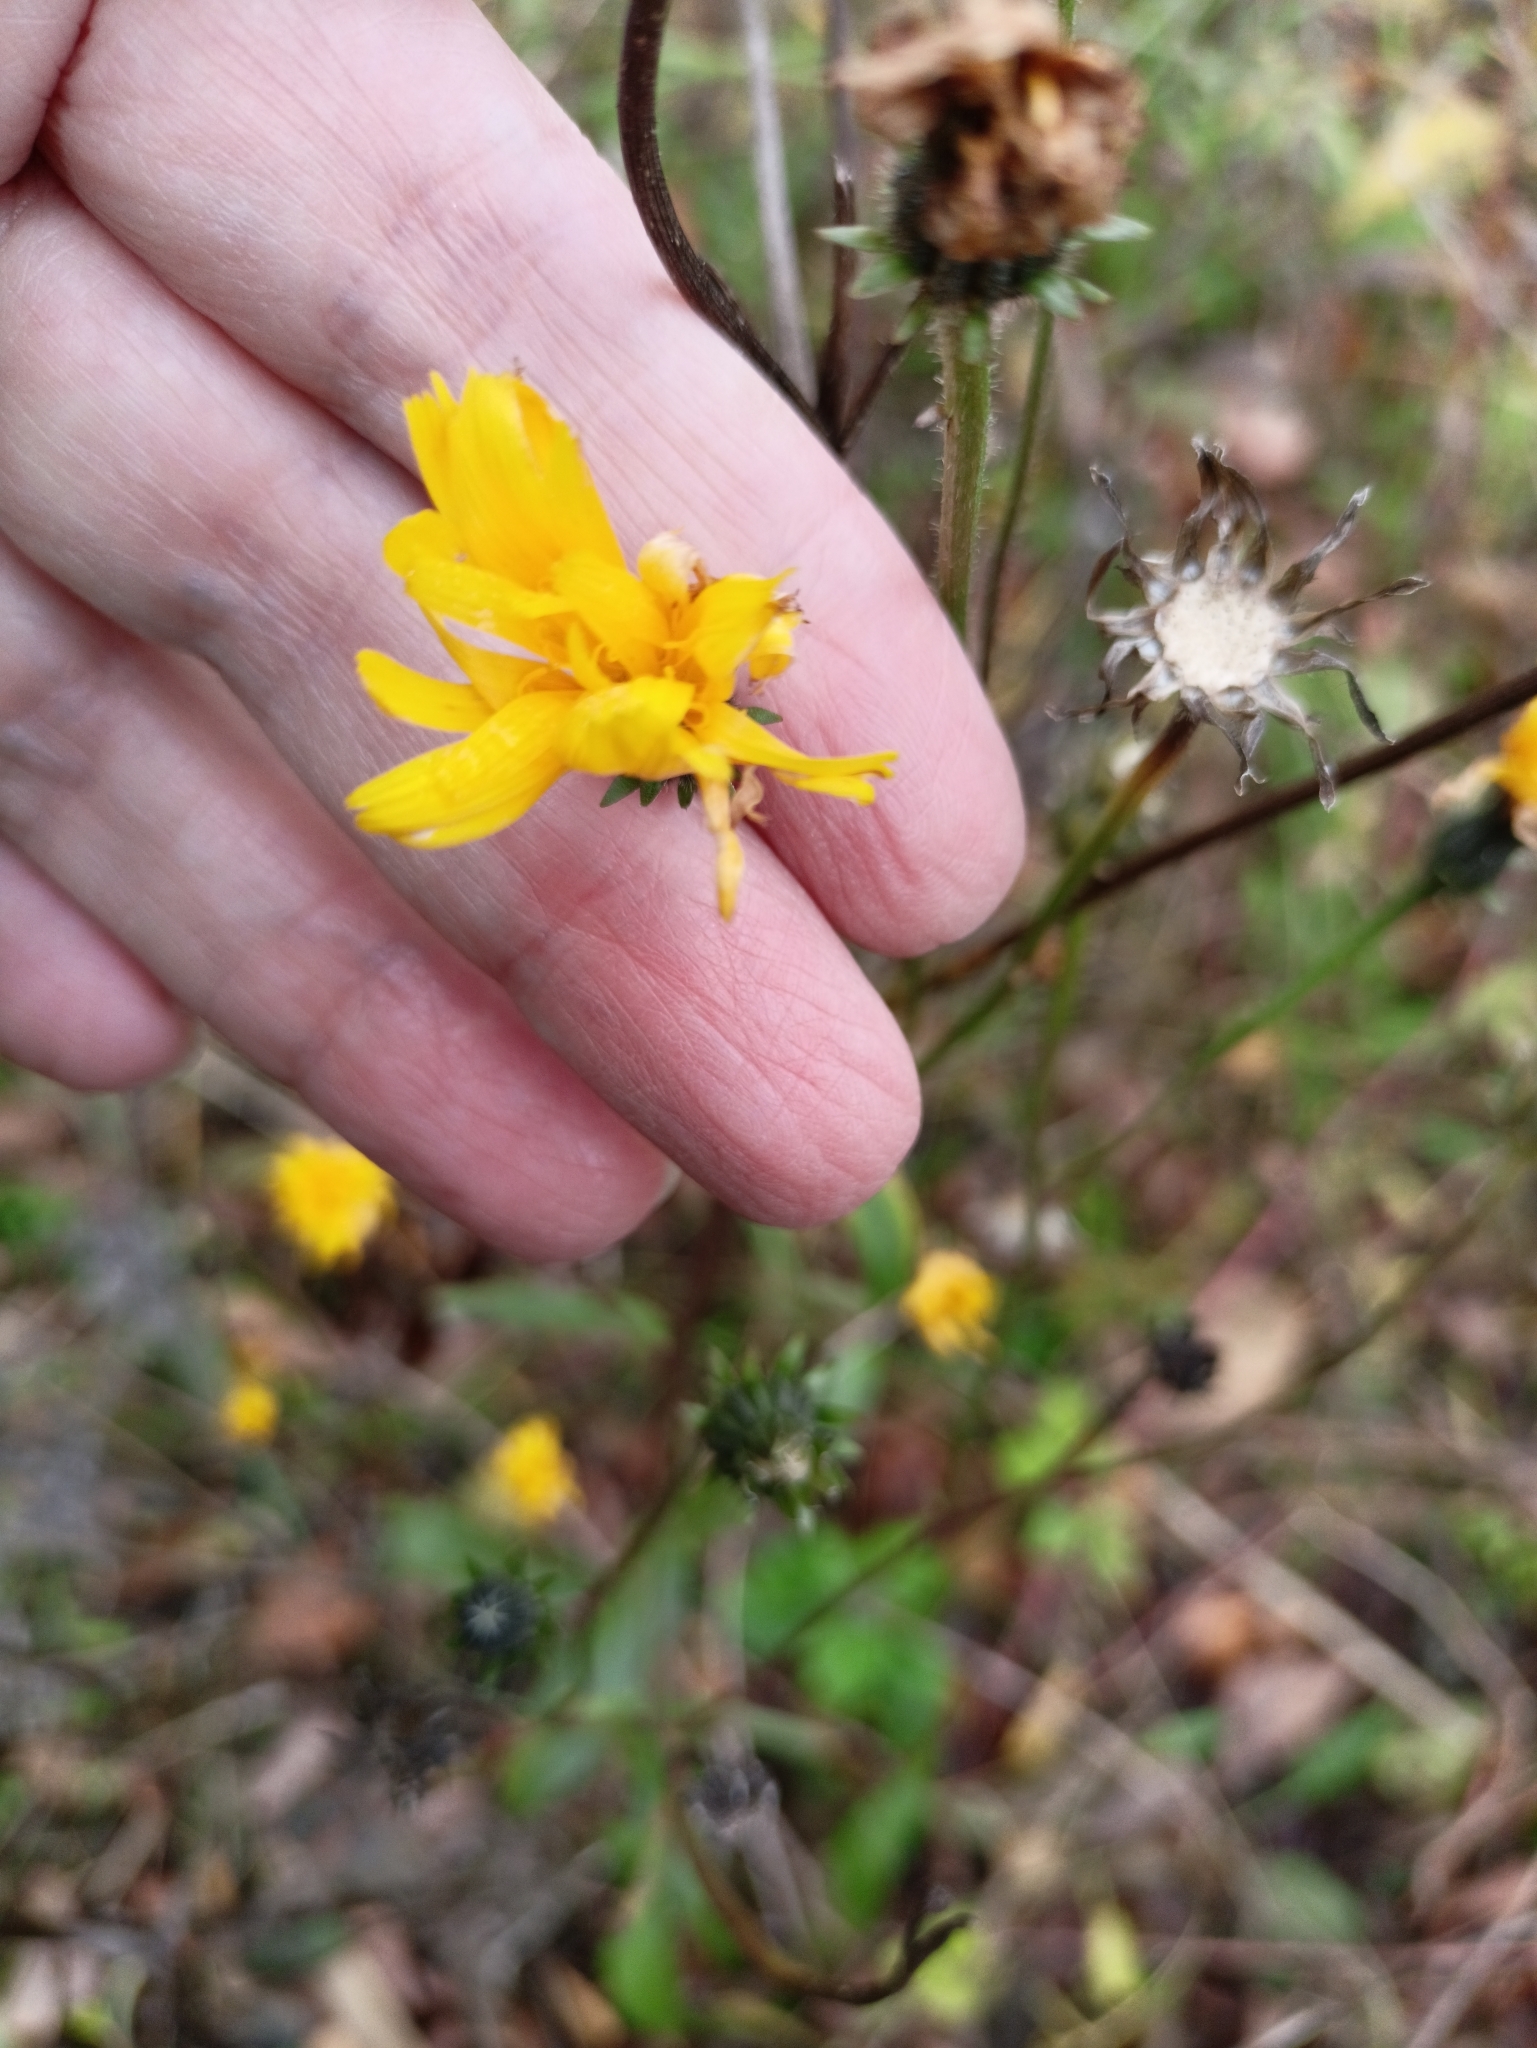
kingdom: Plantae
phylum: Tracheophyta
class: Magnoliopsida
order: Asterales
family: Asteraceae
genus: Picris
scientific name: Picris hieracioides
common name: Hawkweed oxtongue
